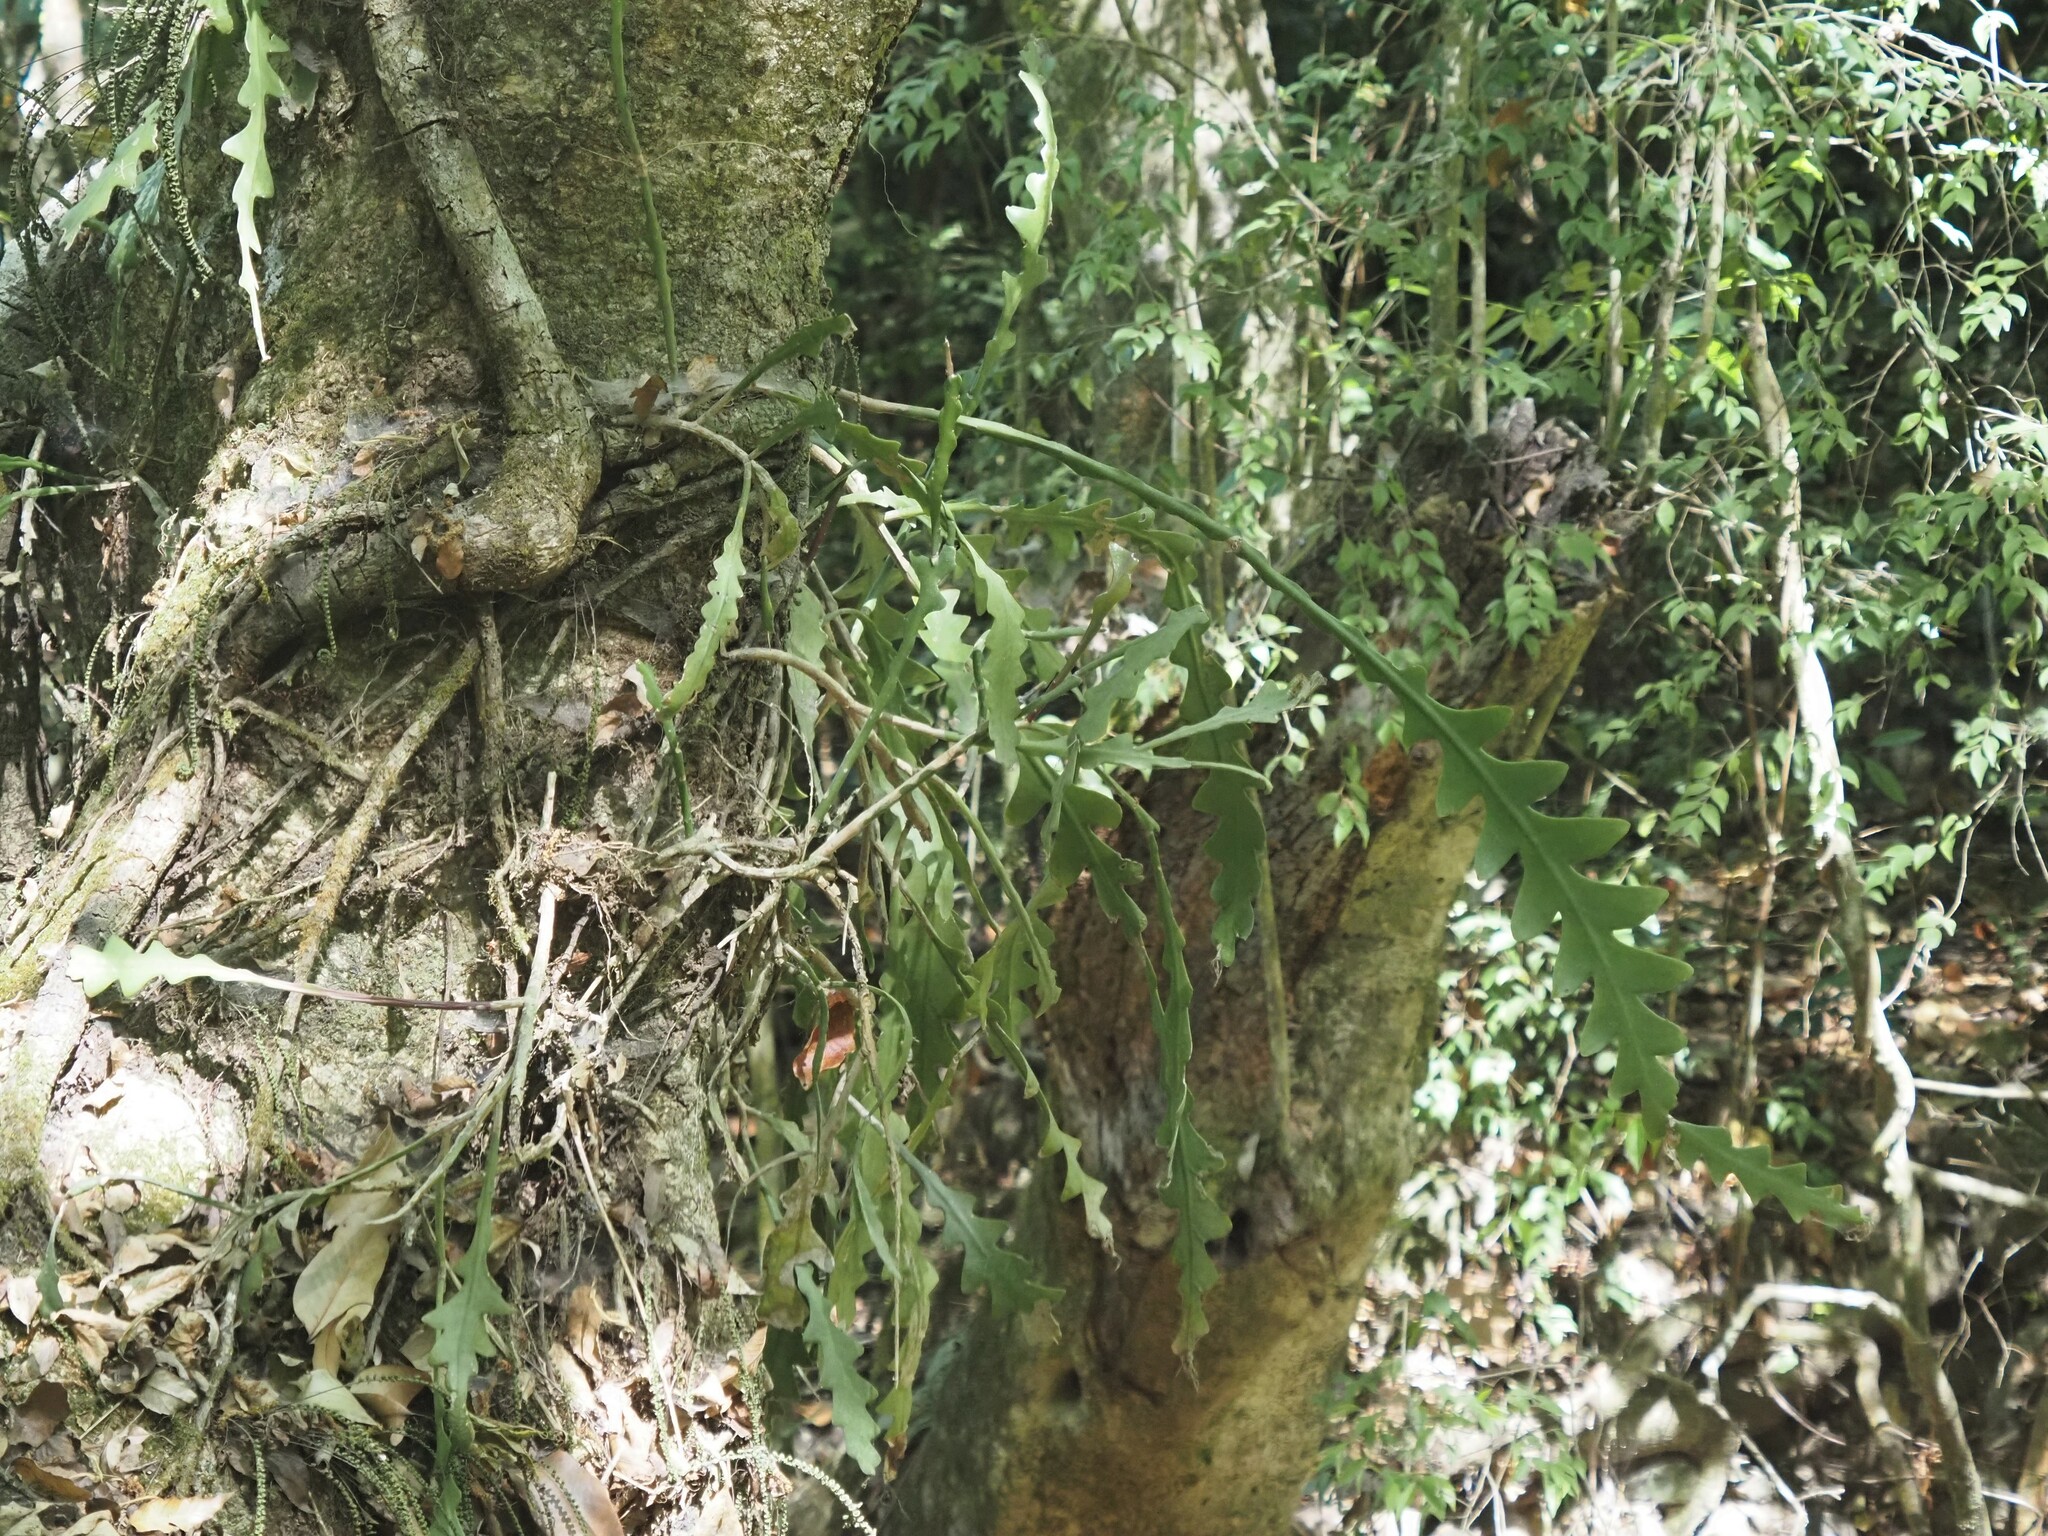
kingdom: Plantae
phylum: Tracheophyta
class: Magnoliopsida
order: Caryophyllales
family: Cactaceae
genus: Disocactus
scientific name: Disocactus anguliger
